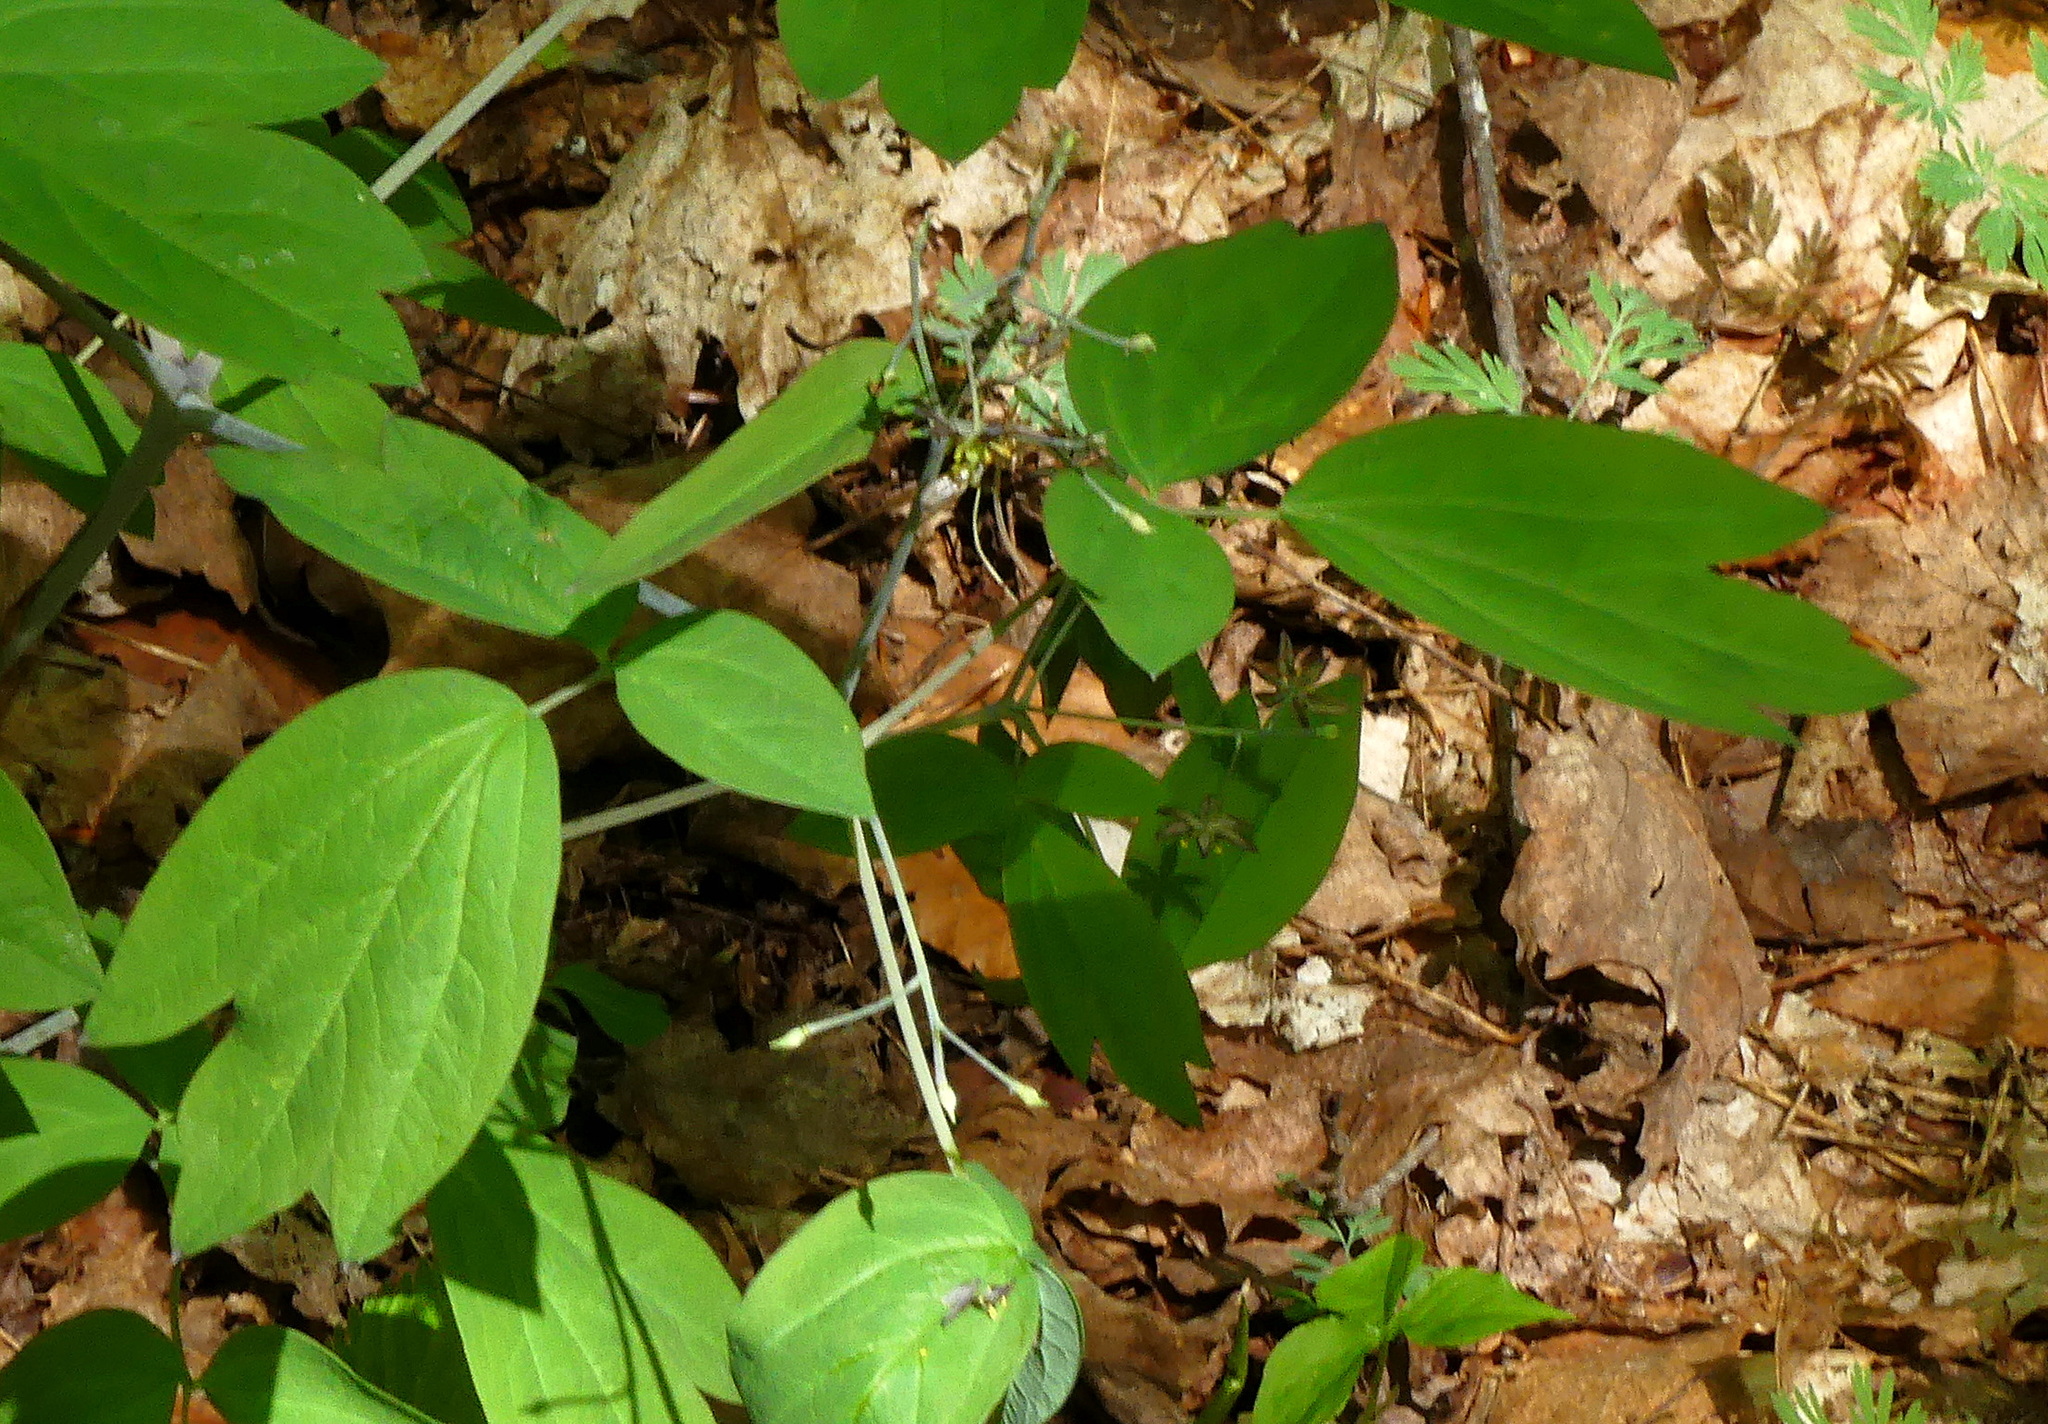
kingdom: Plantae
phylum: Tracheophyta
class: Magnoliopsida
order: Ranunculales
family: Berberidaceae
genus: Caulophyllum
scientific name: Caulophyllum giganteum
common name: Blue cohosh
